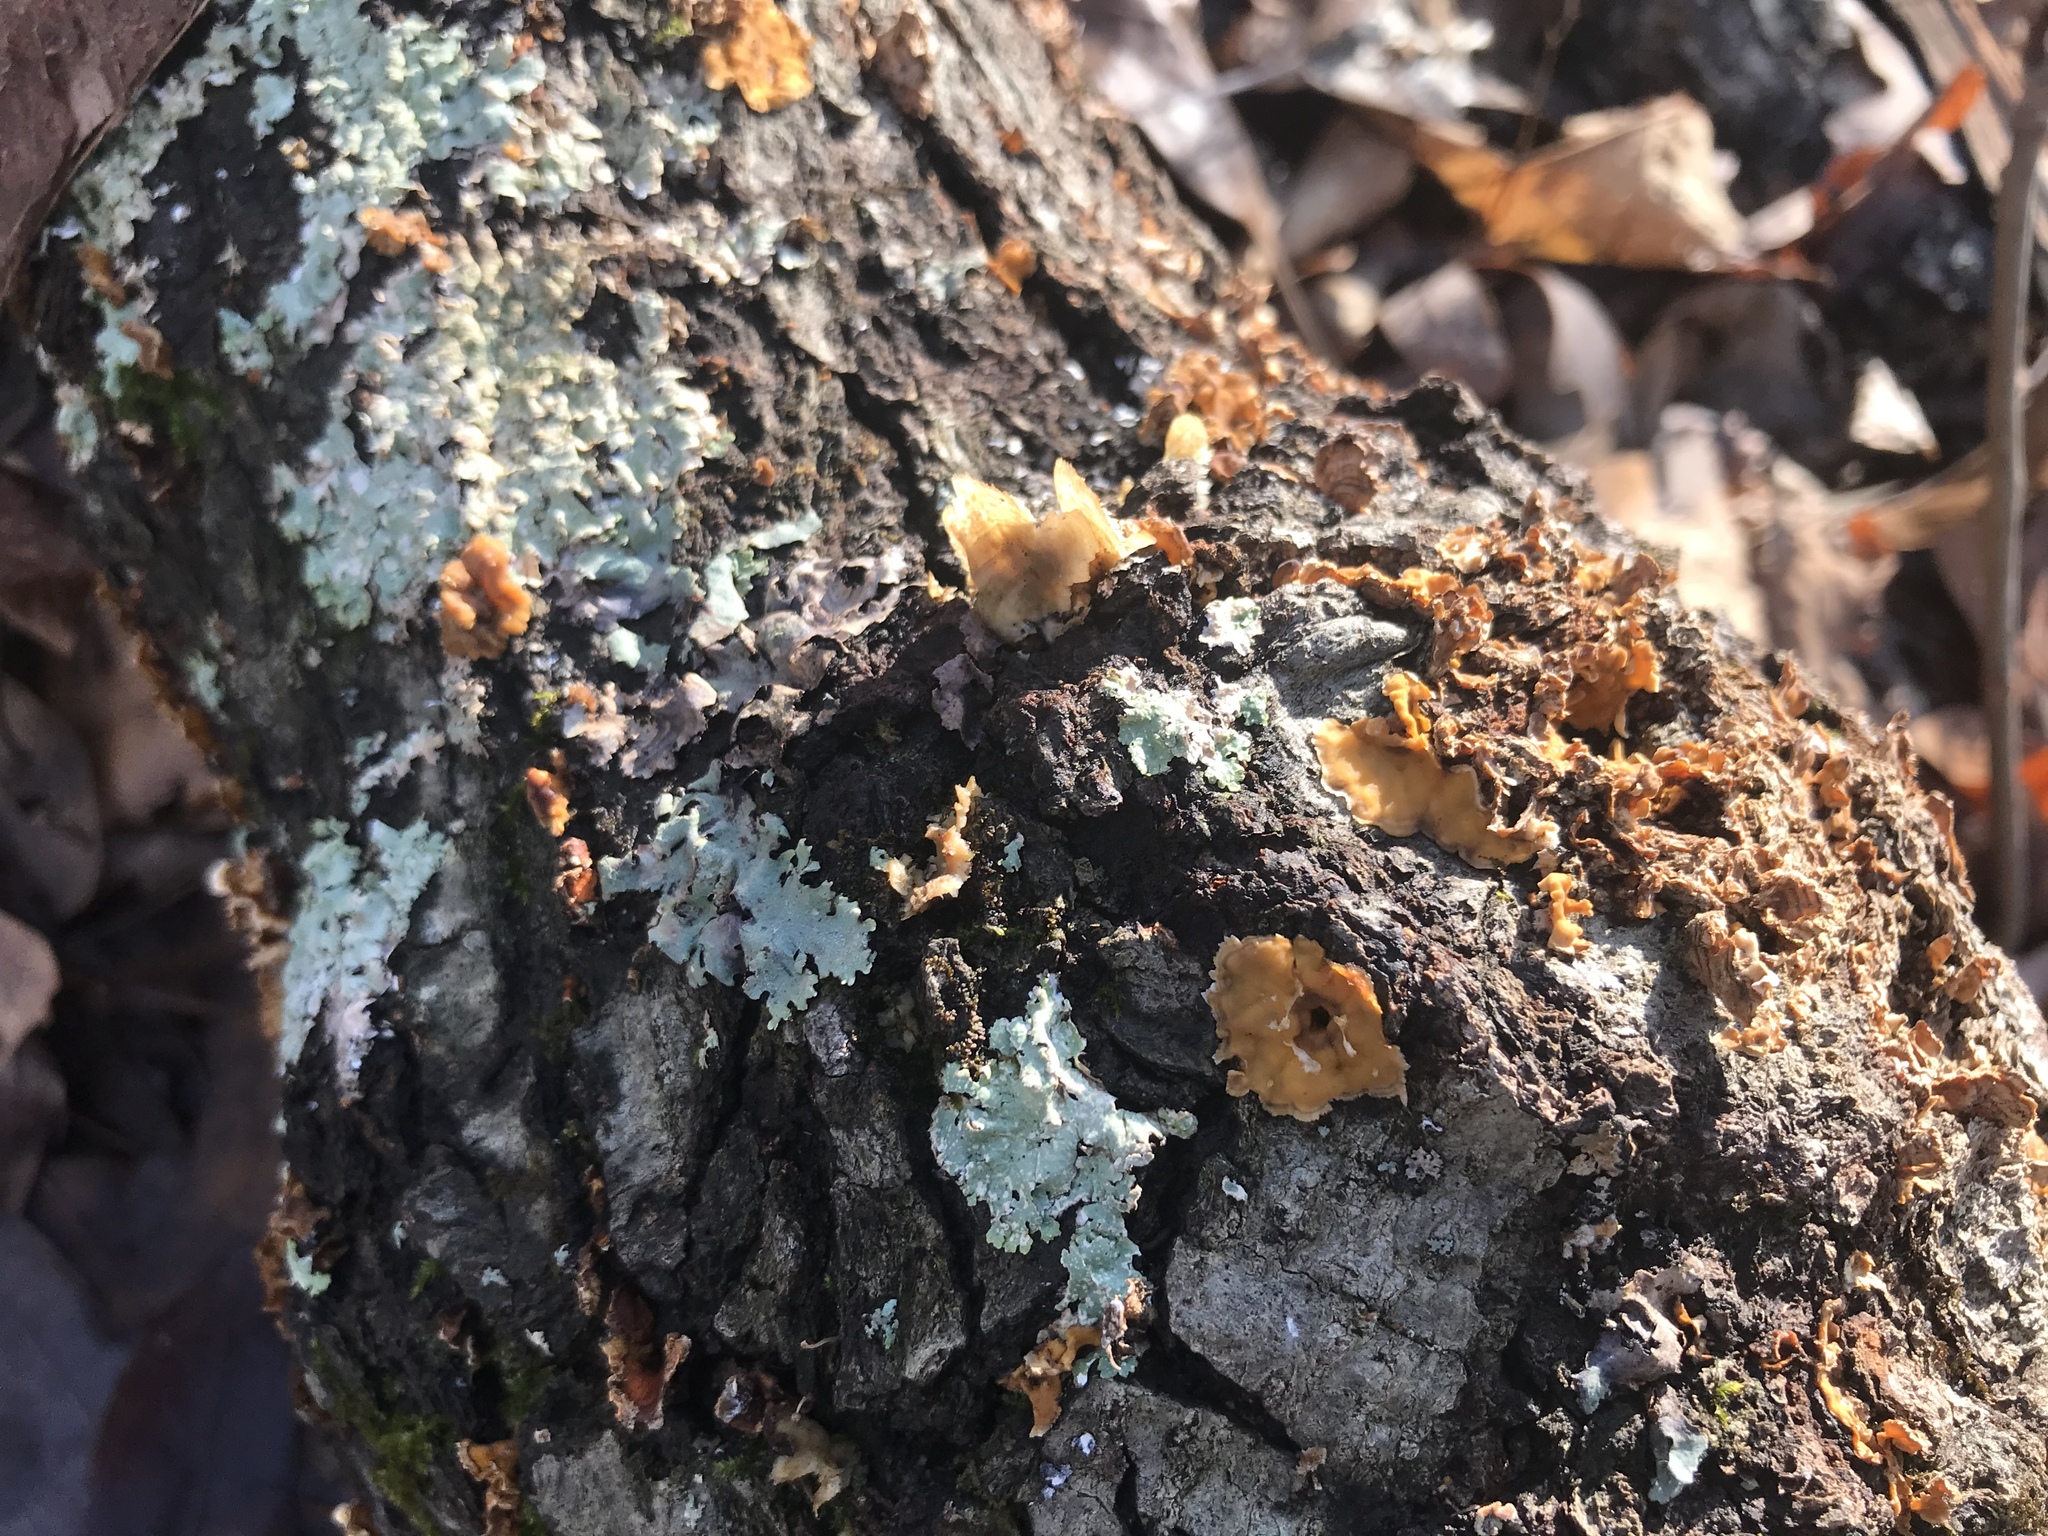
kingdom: Fungi
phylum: Basidiomycota
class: Agaricomycetes
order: Russulales
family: Stereaceae
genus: Stereum
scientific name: Stereum complicatum
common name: Crowded parchment
